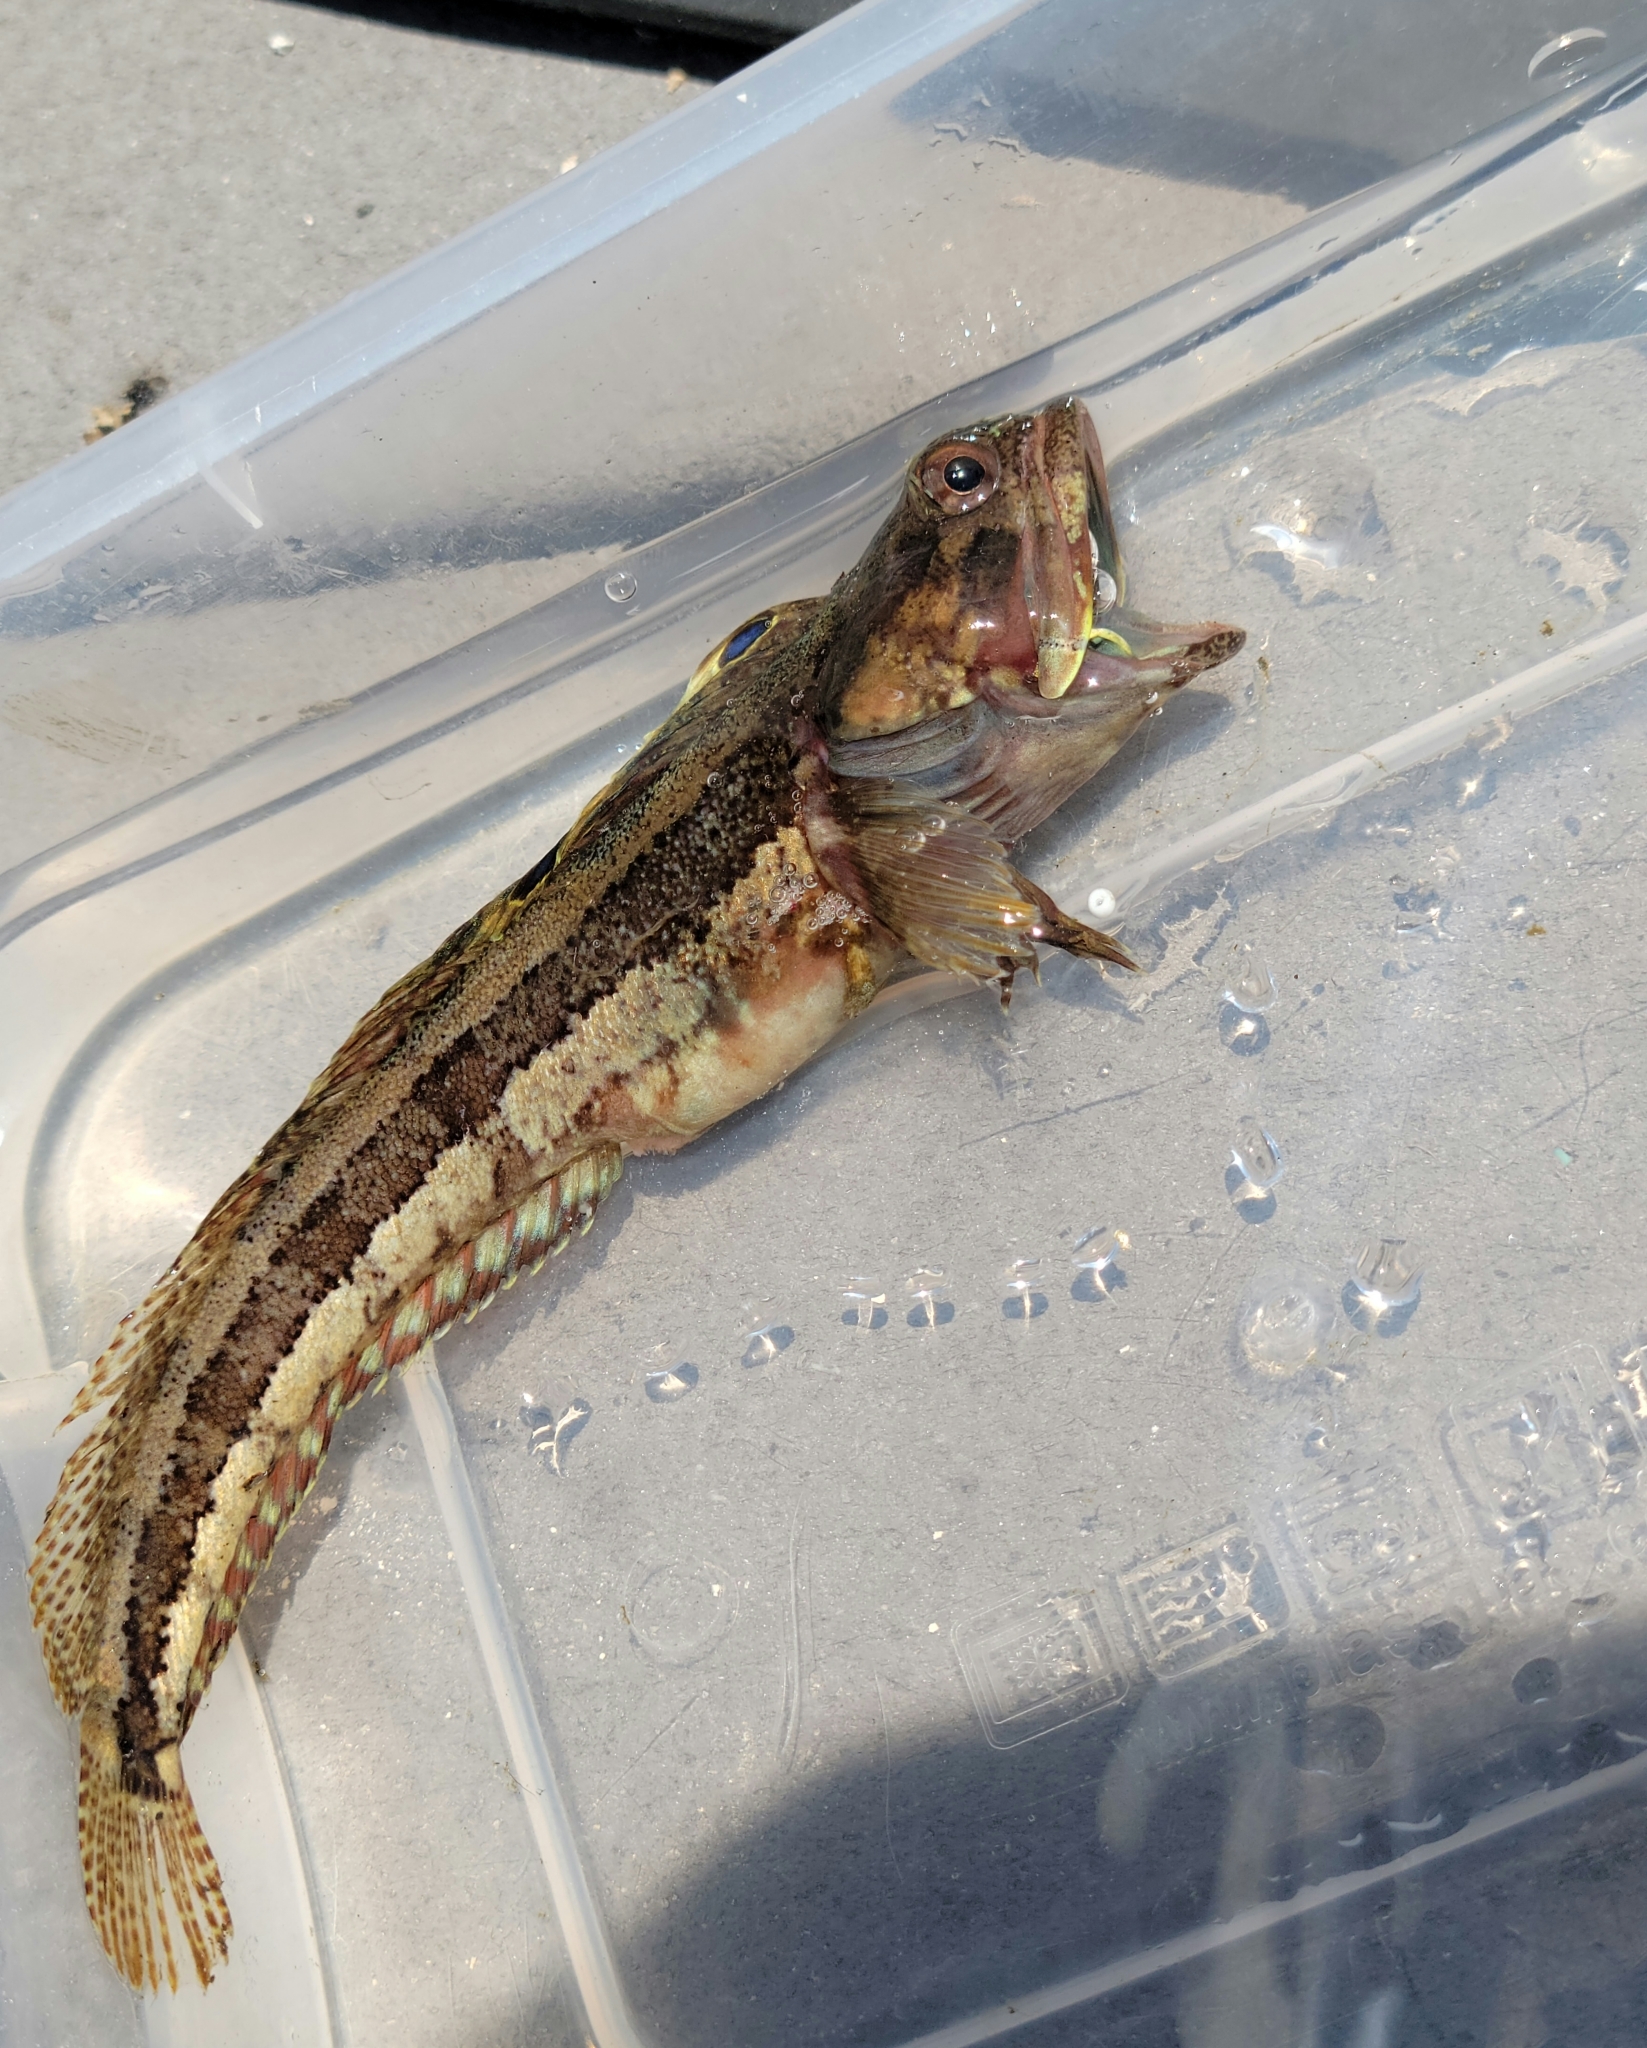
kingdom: Animalia
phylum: Chordata
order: Perciformes
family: Chaenopsidae
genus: Neoclinus
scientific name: Neoclinus blanchardi
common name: Sarcastic fringehead
